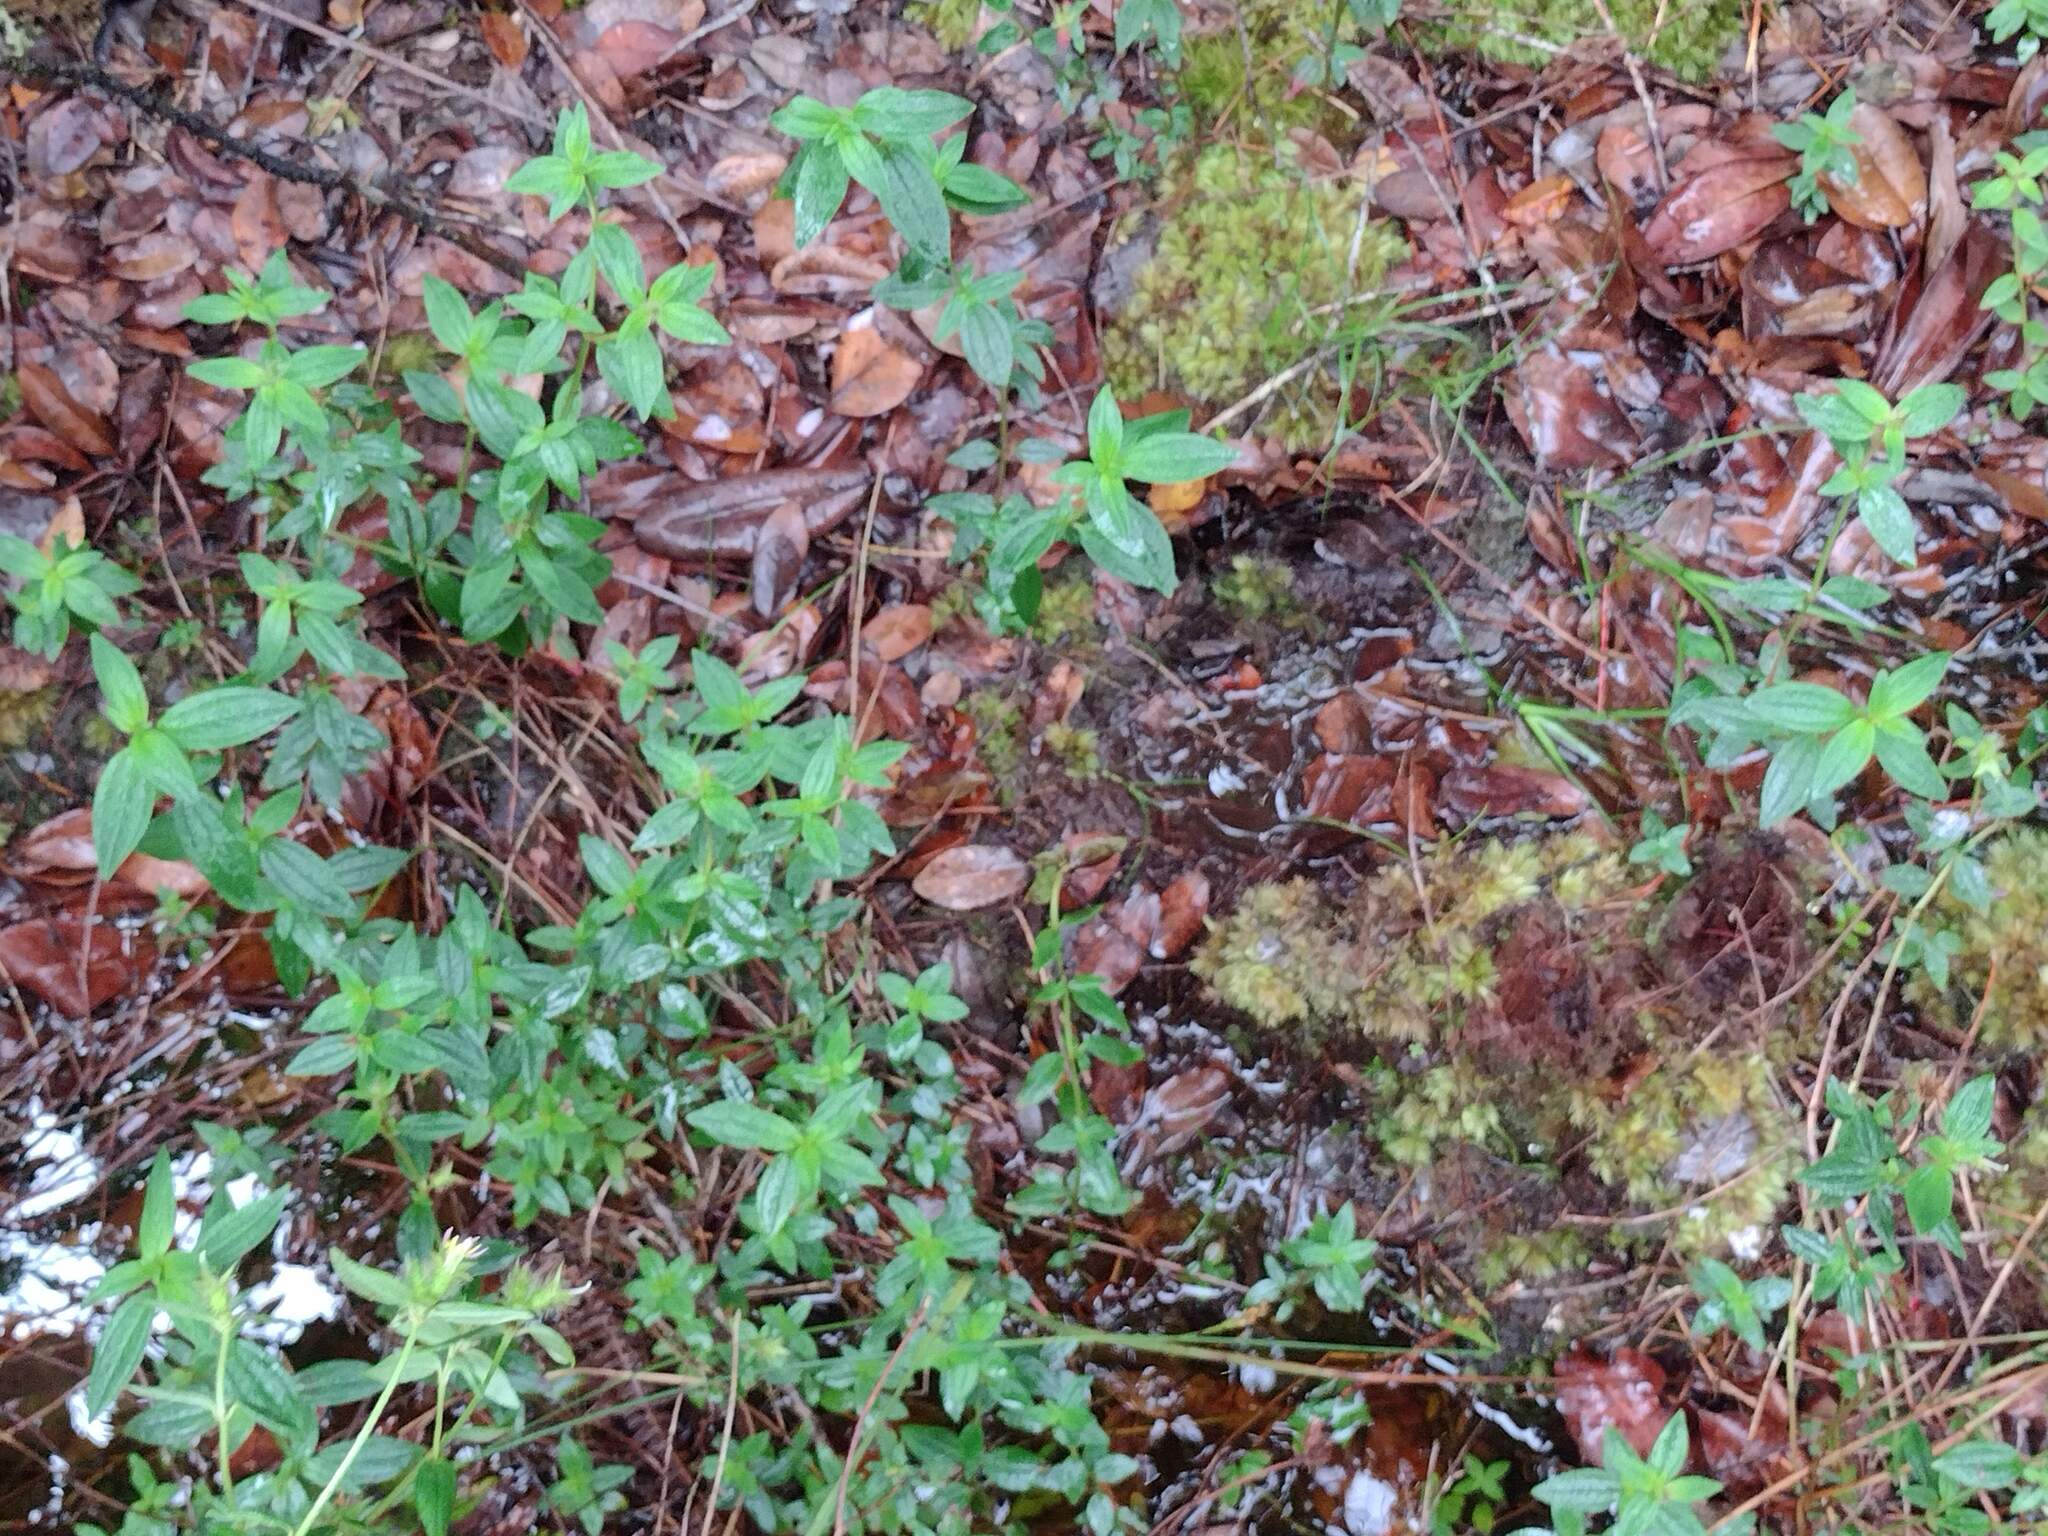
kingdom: Plantae
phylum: Tracheophyta
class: Magnoliopsida
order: Myrtales
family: Melastomataceae
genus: Pterolepis
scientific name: Pterolepis glomerata
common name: False meadowbeauty
